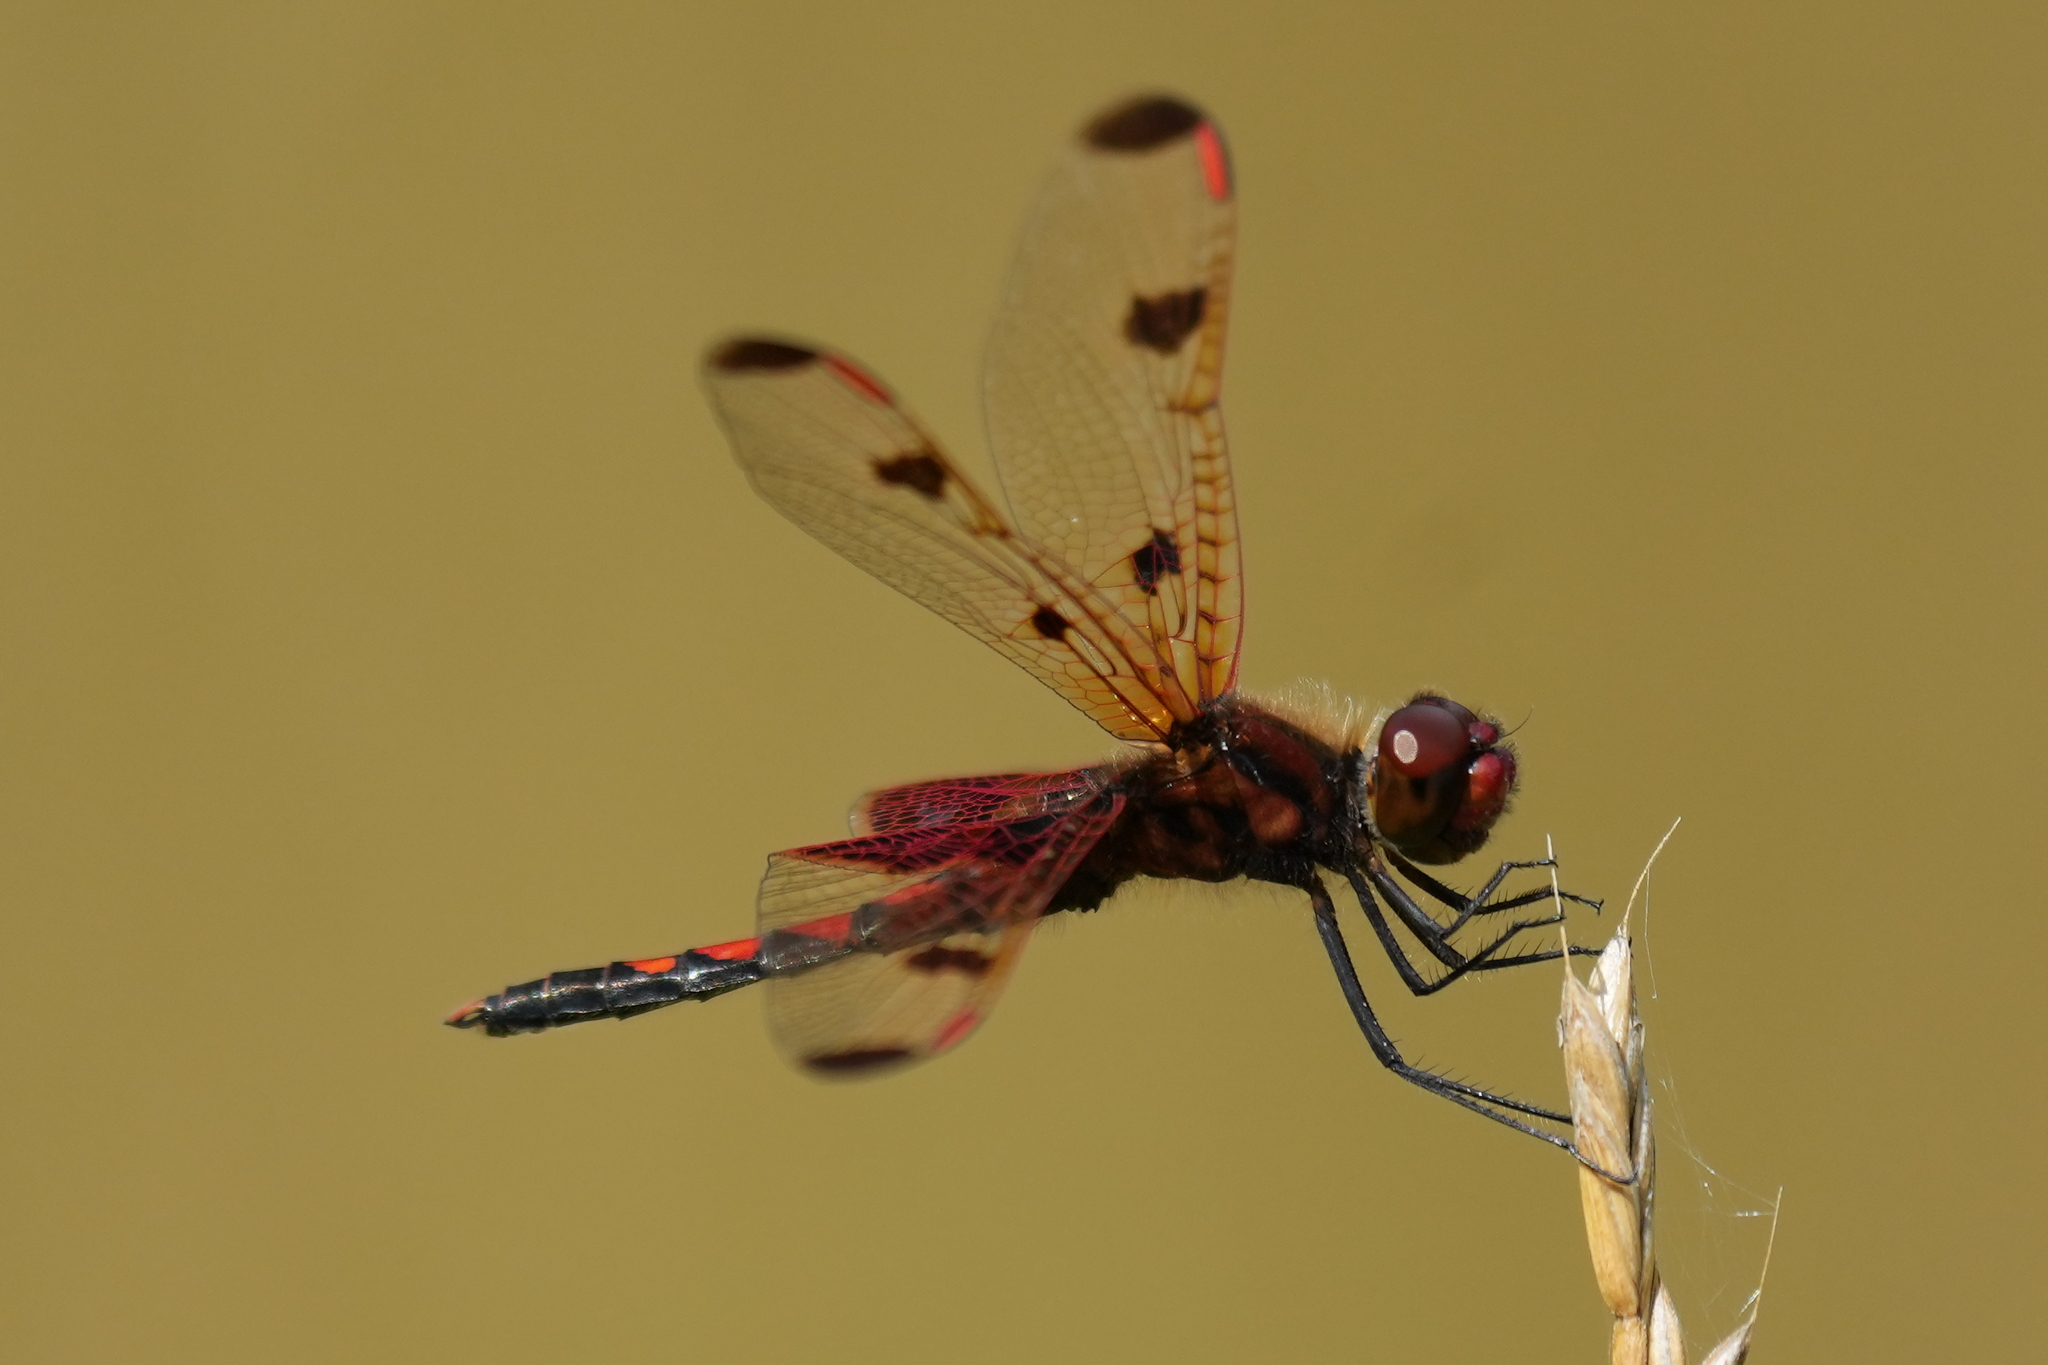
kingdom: Animalia
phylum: Arthropoda
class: Insecta
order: Odonata
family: Libellulidae
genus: Celithemis
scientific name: Celithemis elisa
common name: Calico pennant
